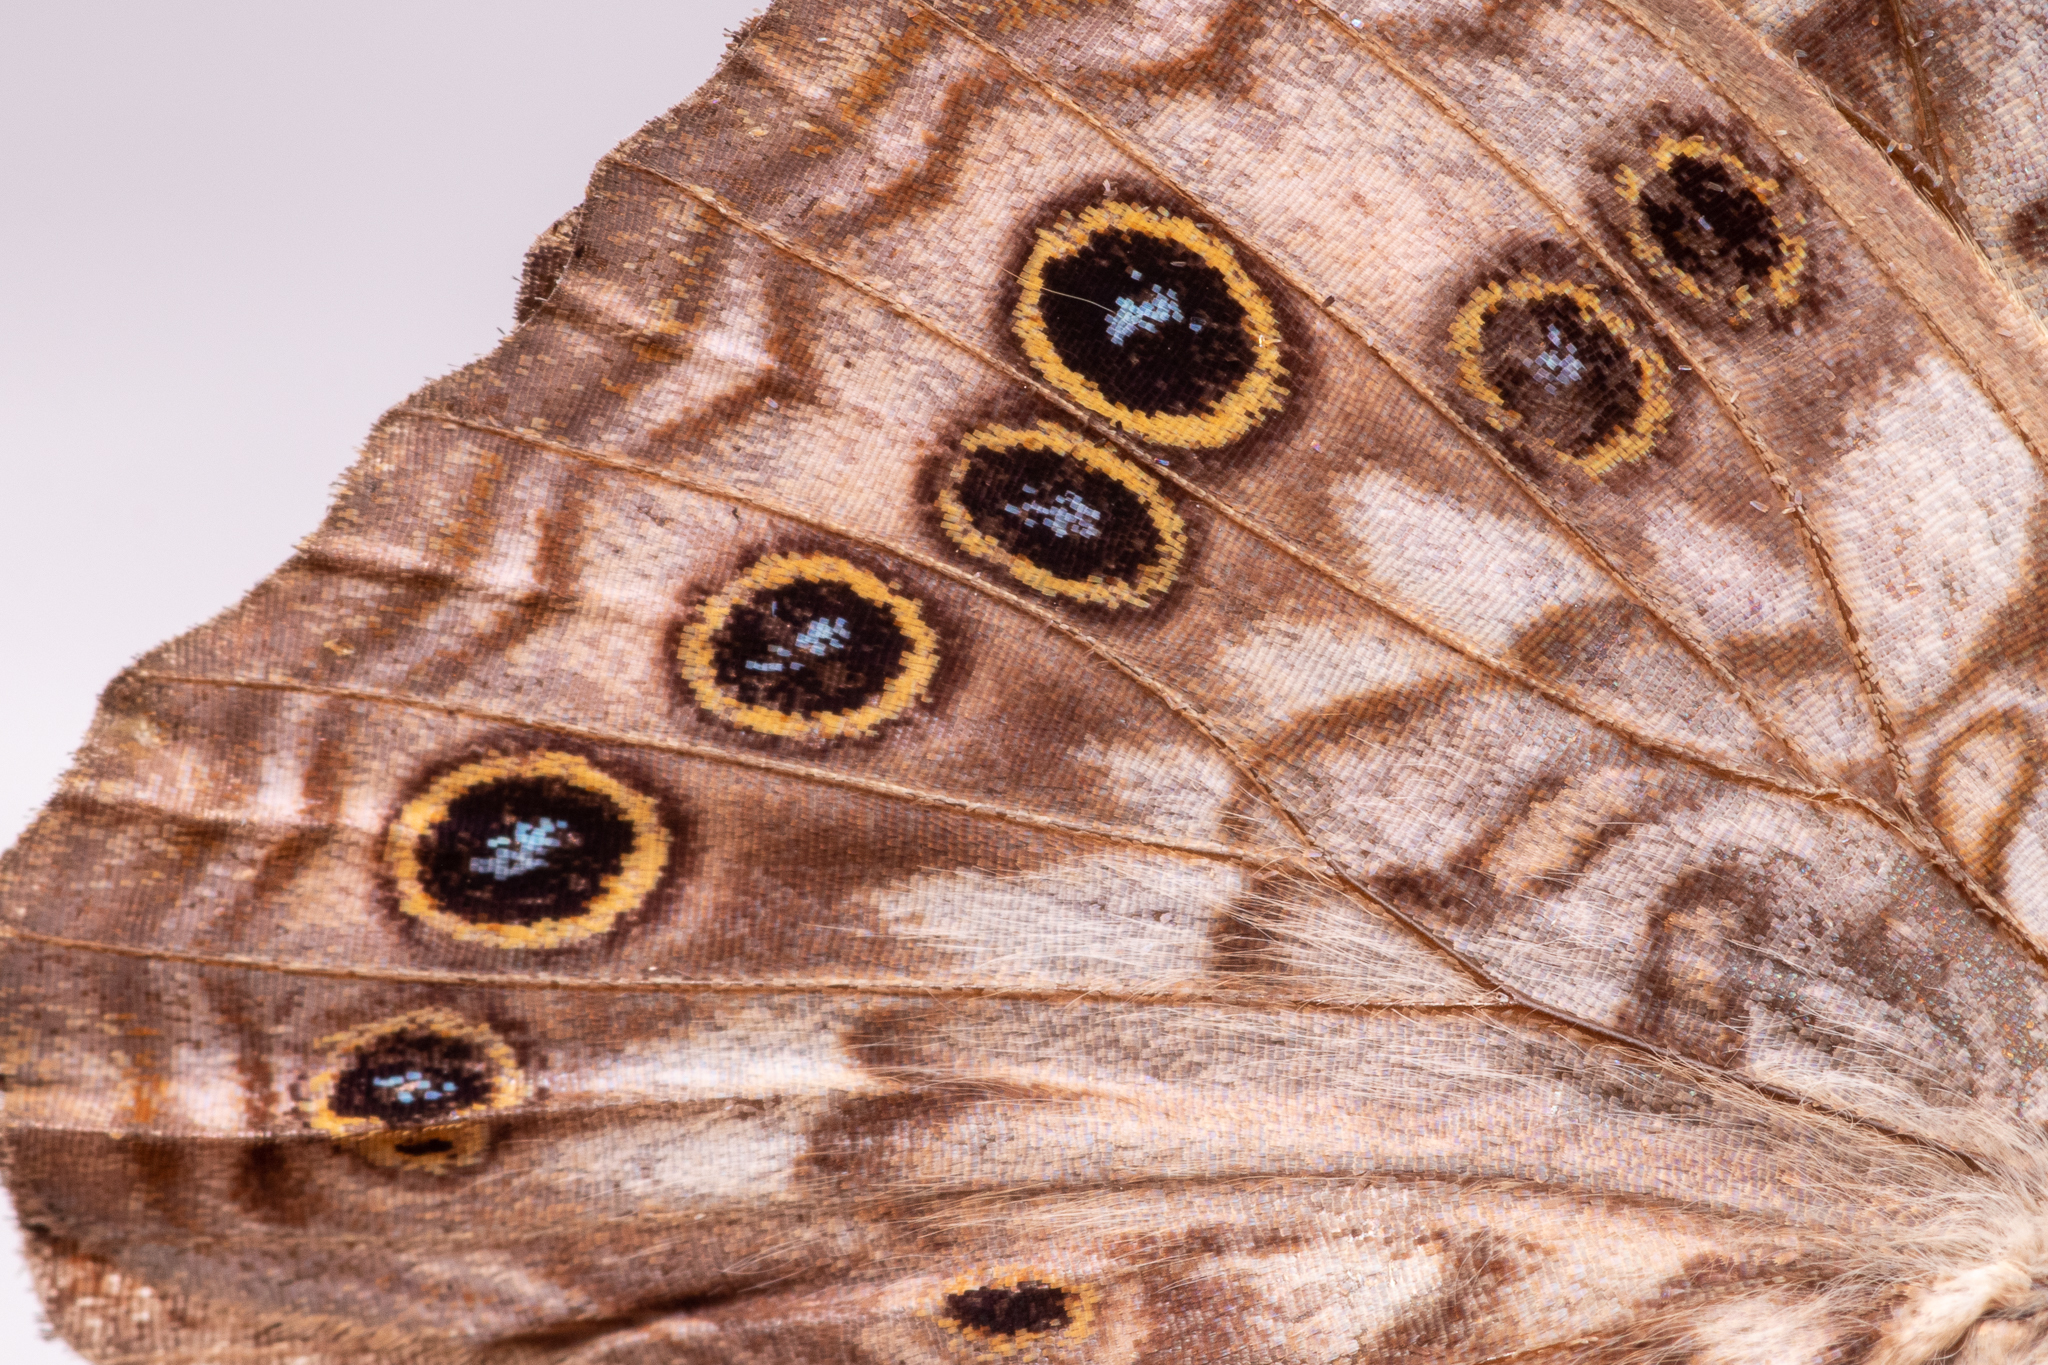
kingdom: Animalia
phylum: Arthropoda
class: Insecta
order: Lepidoptera
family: Nymphalidae
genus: Asterocampa
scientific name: Asterocampa celtis
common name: Hackberry emperor
